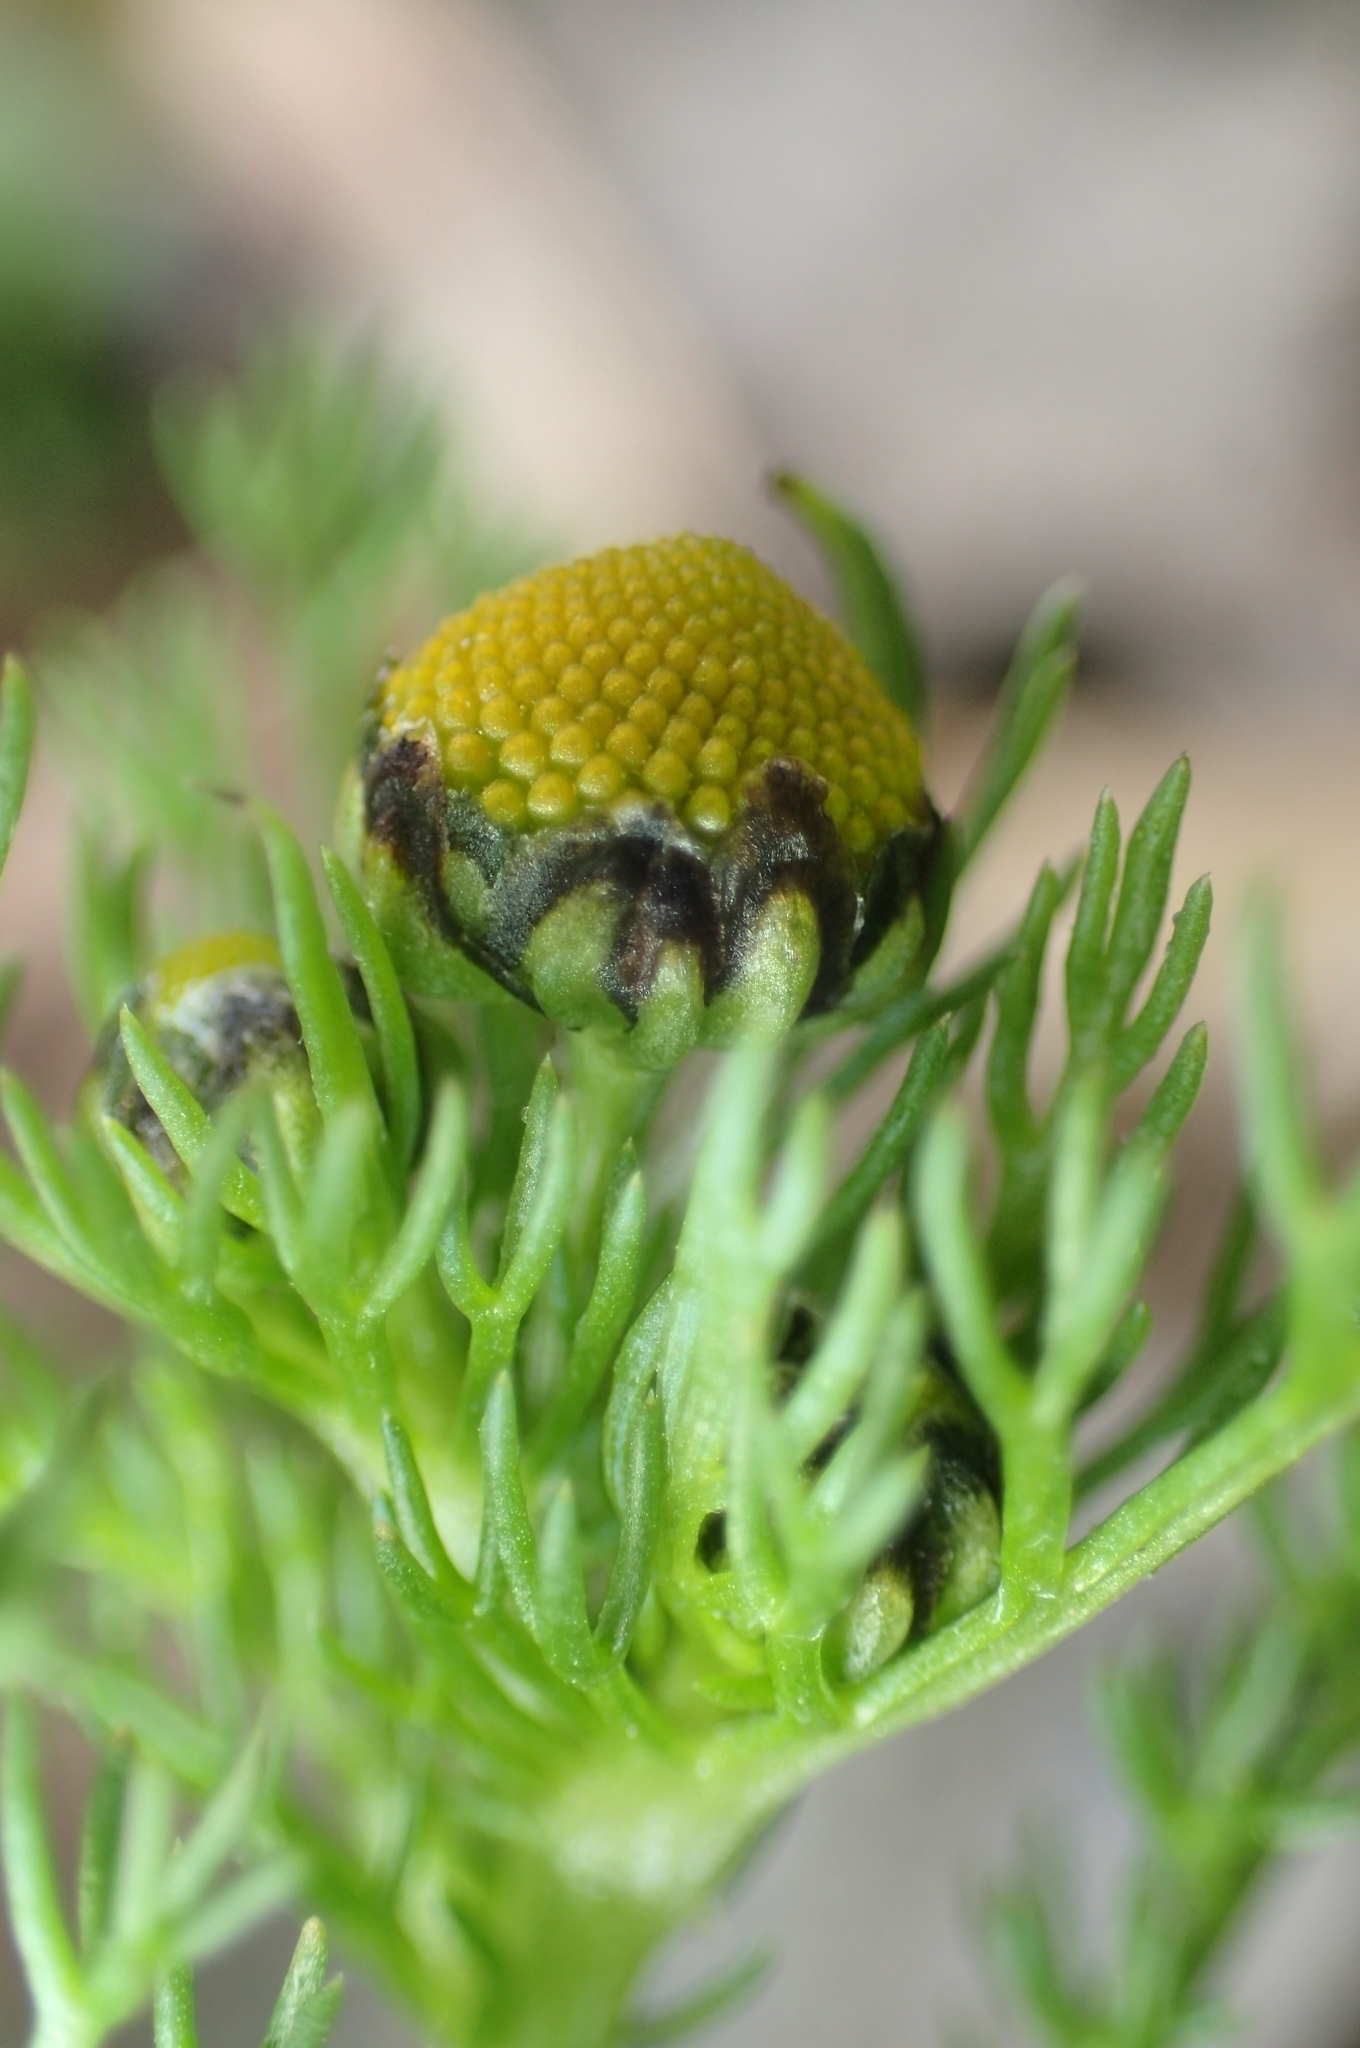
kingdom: Plantae
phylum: Tracheophyta
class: Magnoliopsida
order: Asterales
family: Asteraceae
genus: Matricaria
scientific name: Matricaria aurea
